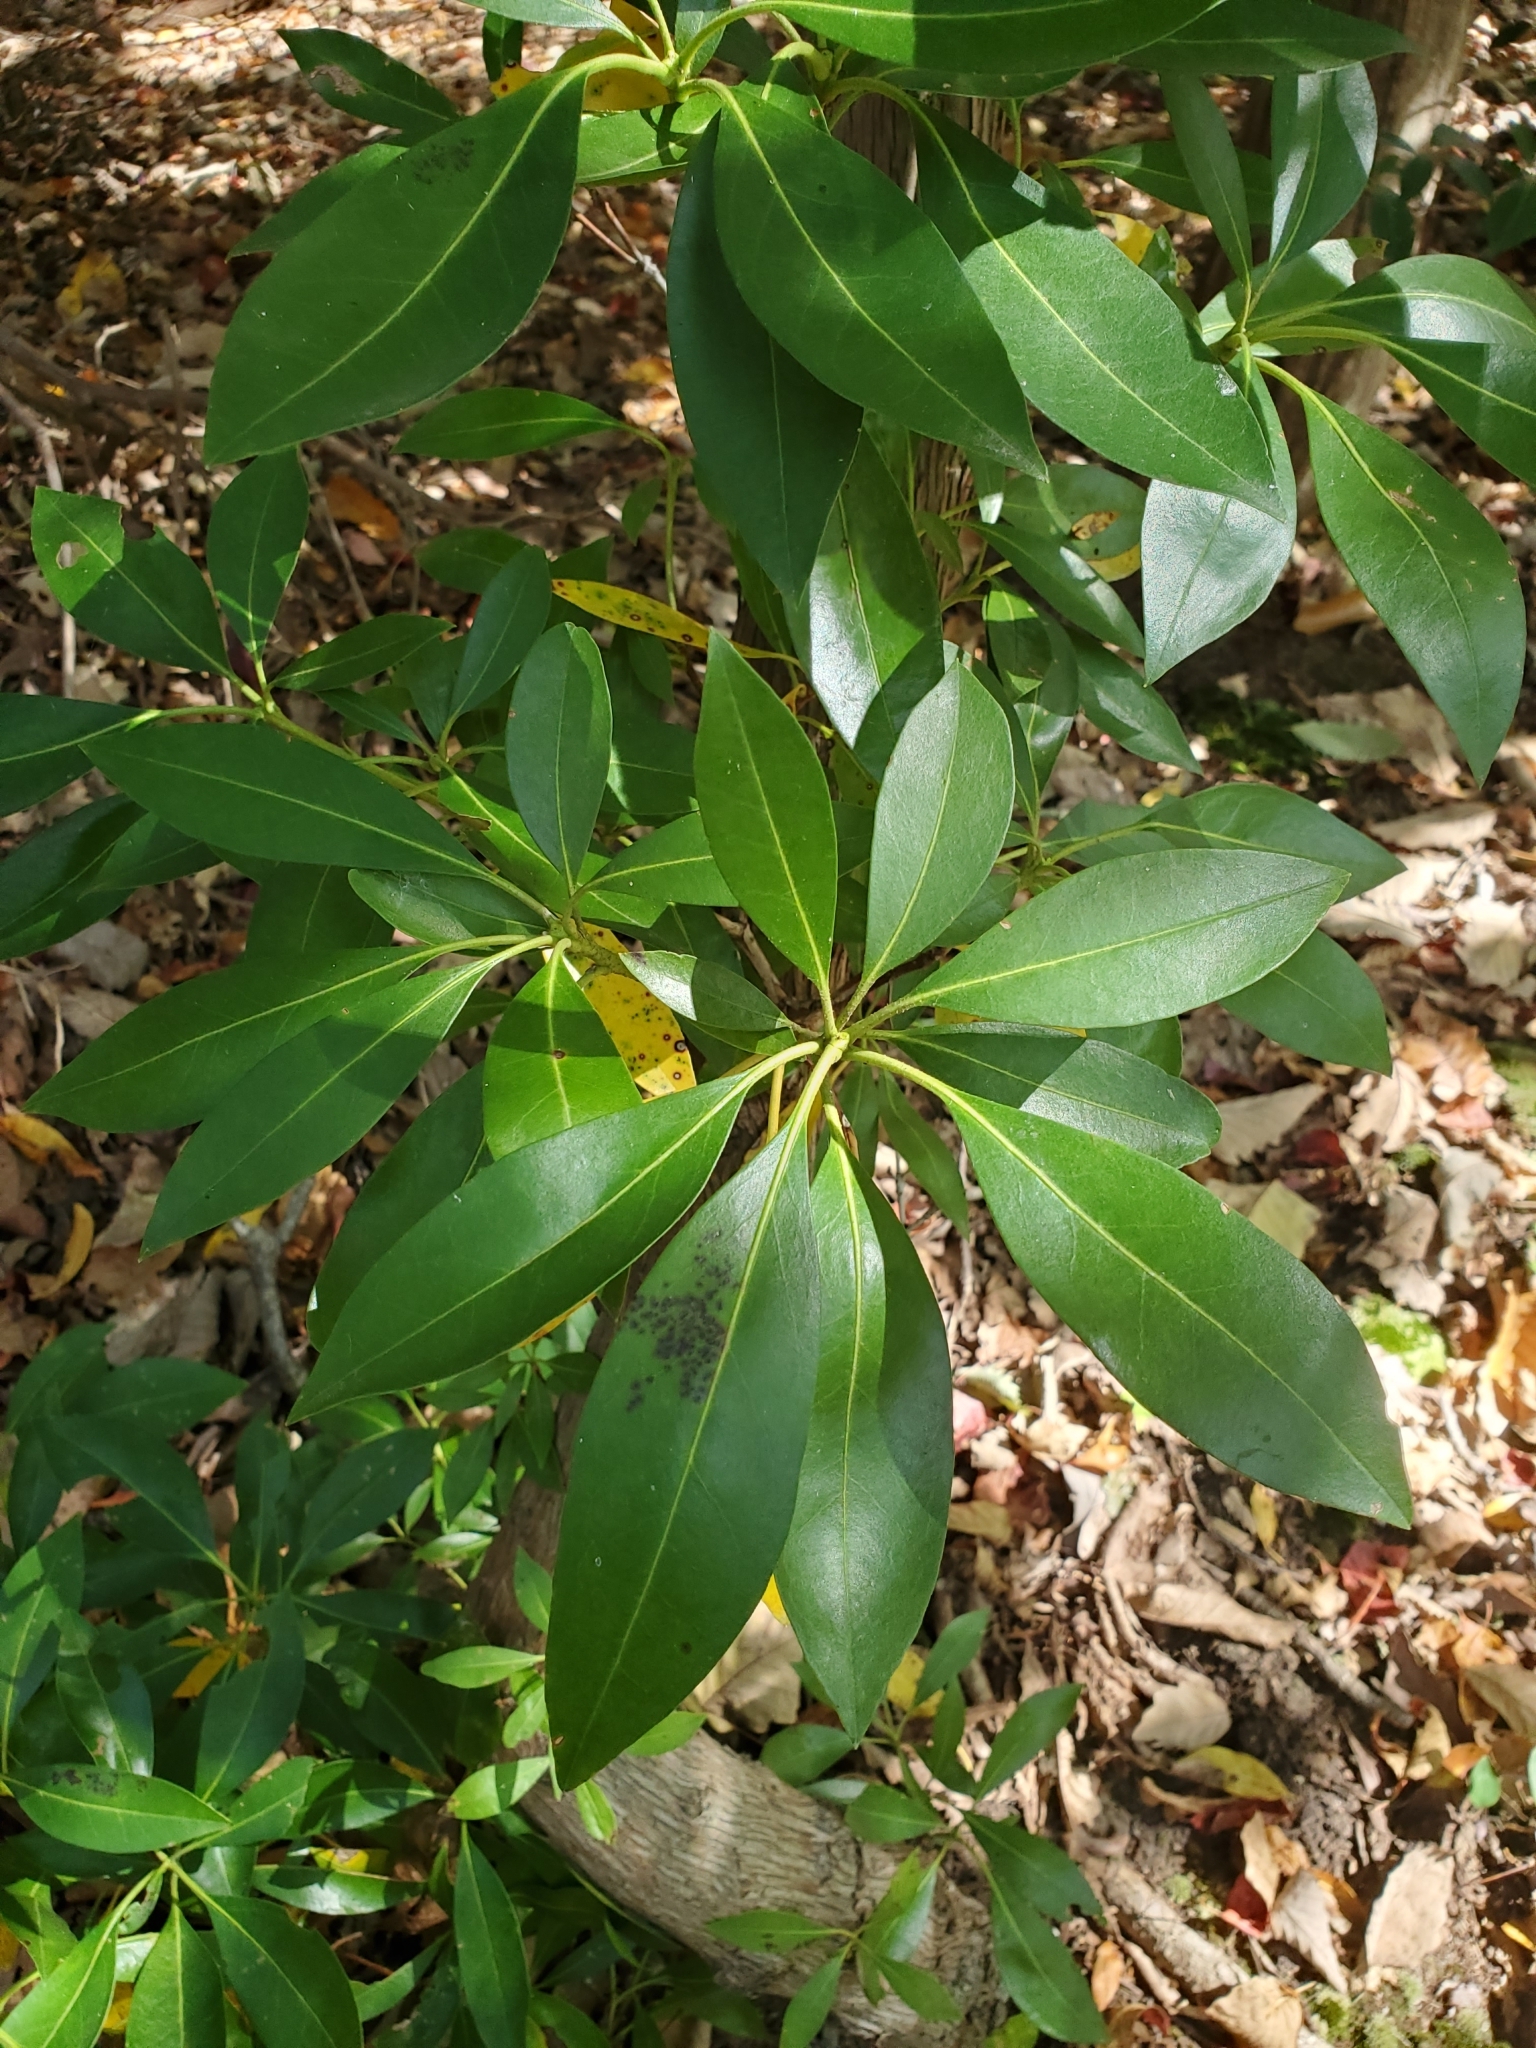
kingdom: Plantae
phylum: Tracheophyta
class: Magnoliopsida
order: Ericales
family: Ericaceae
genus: Kalmia
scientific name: Kalmia latifolia
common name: Mountain-laurel
